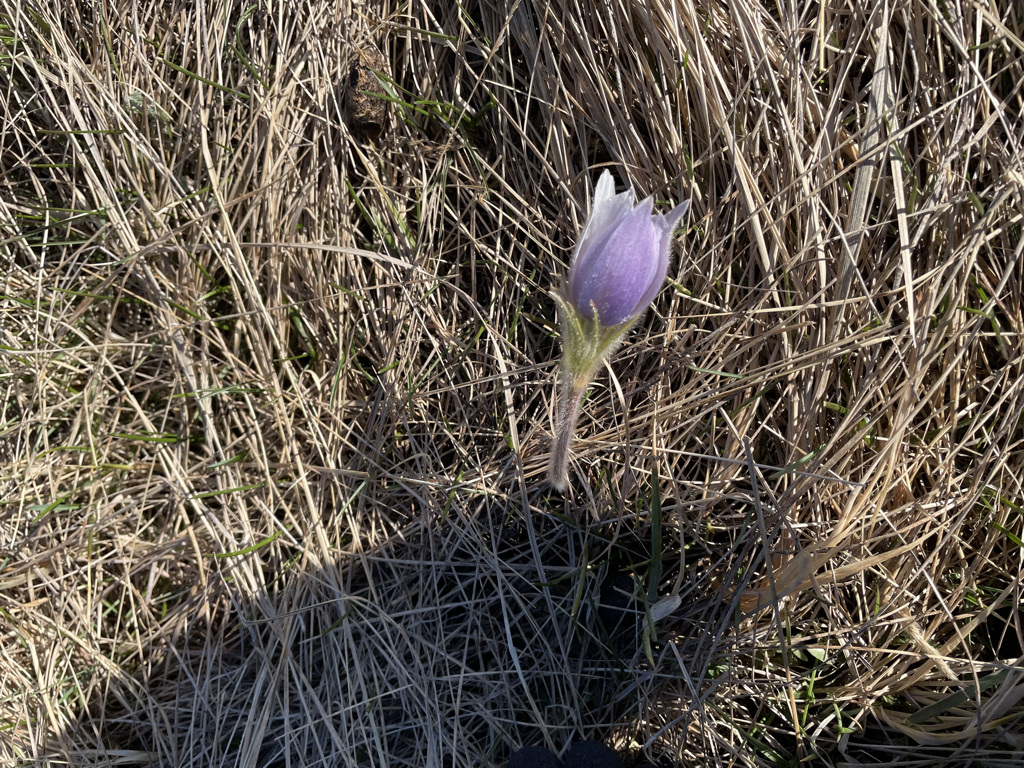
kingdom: Plantae
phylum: Tracheophyta
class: Magnoliopsida
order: Ranunculales
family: Ranunculaceae
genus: Pulsatilla
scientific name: Pulsatilla nuttalliana
